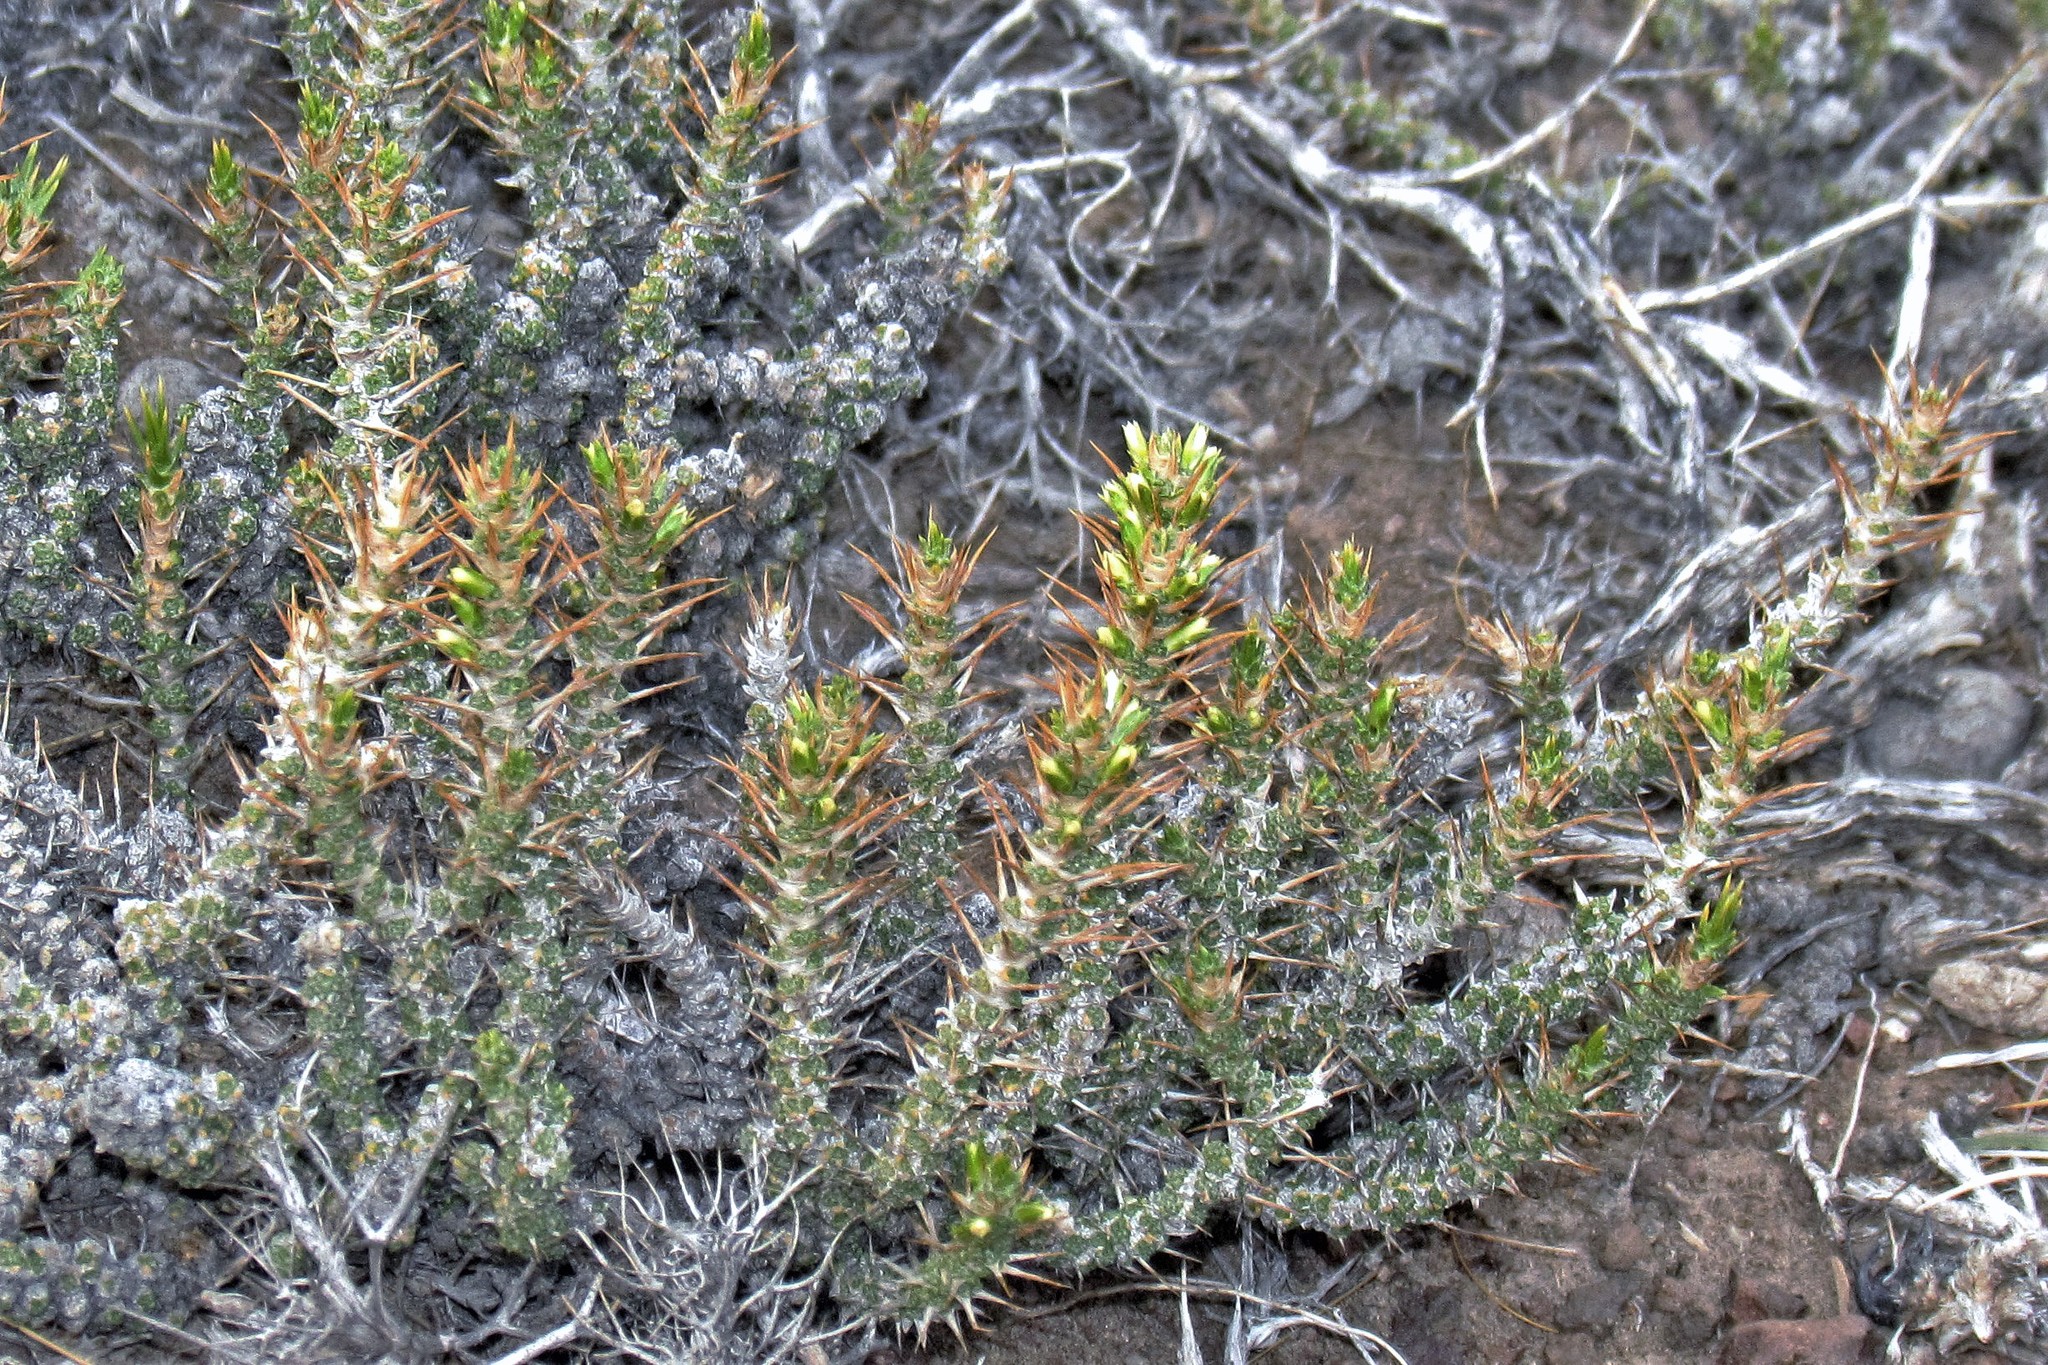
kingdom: Plantae
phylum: Tracheophyta
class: Magnoliopsida
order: Asterales
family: Asteraceae
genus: Nassauvia
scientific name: Nassauvia axillaris
